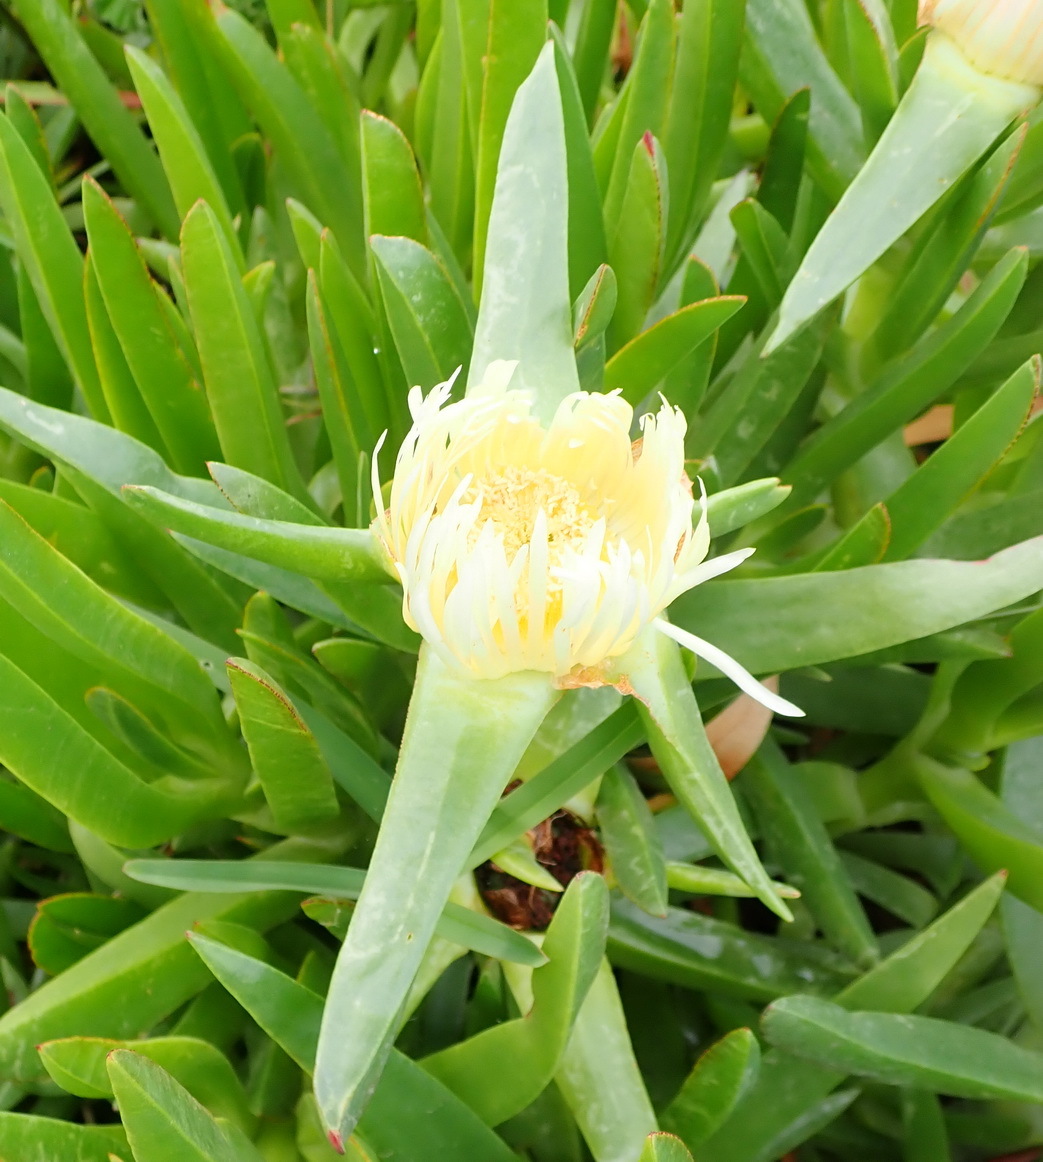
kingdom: Plantae
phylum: Tracheophyta
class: Magnoliopsida
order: Caryophyllales
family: Aizoaceae
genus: Carpobrotus
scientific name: Carpobrotus edulis
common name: Hottentot-fig
